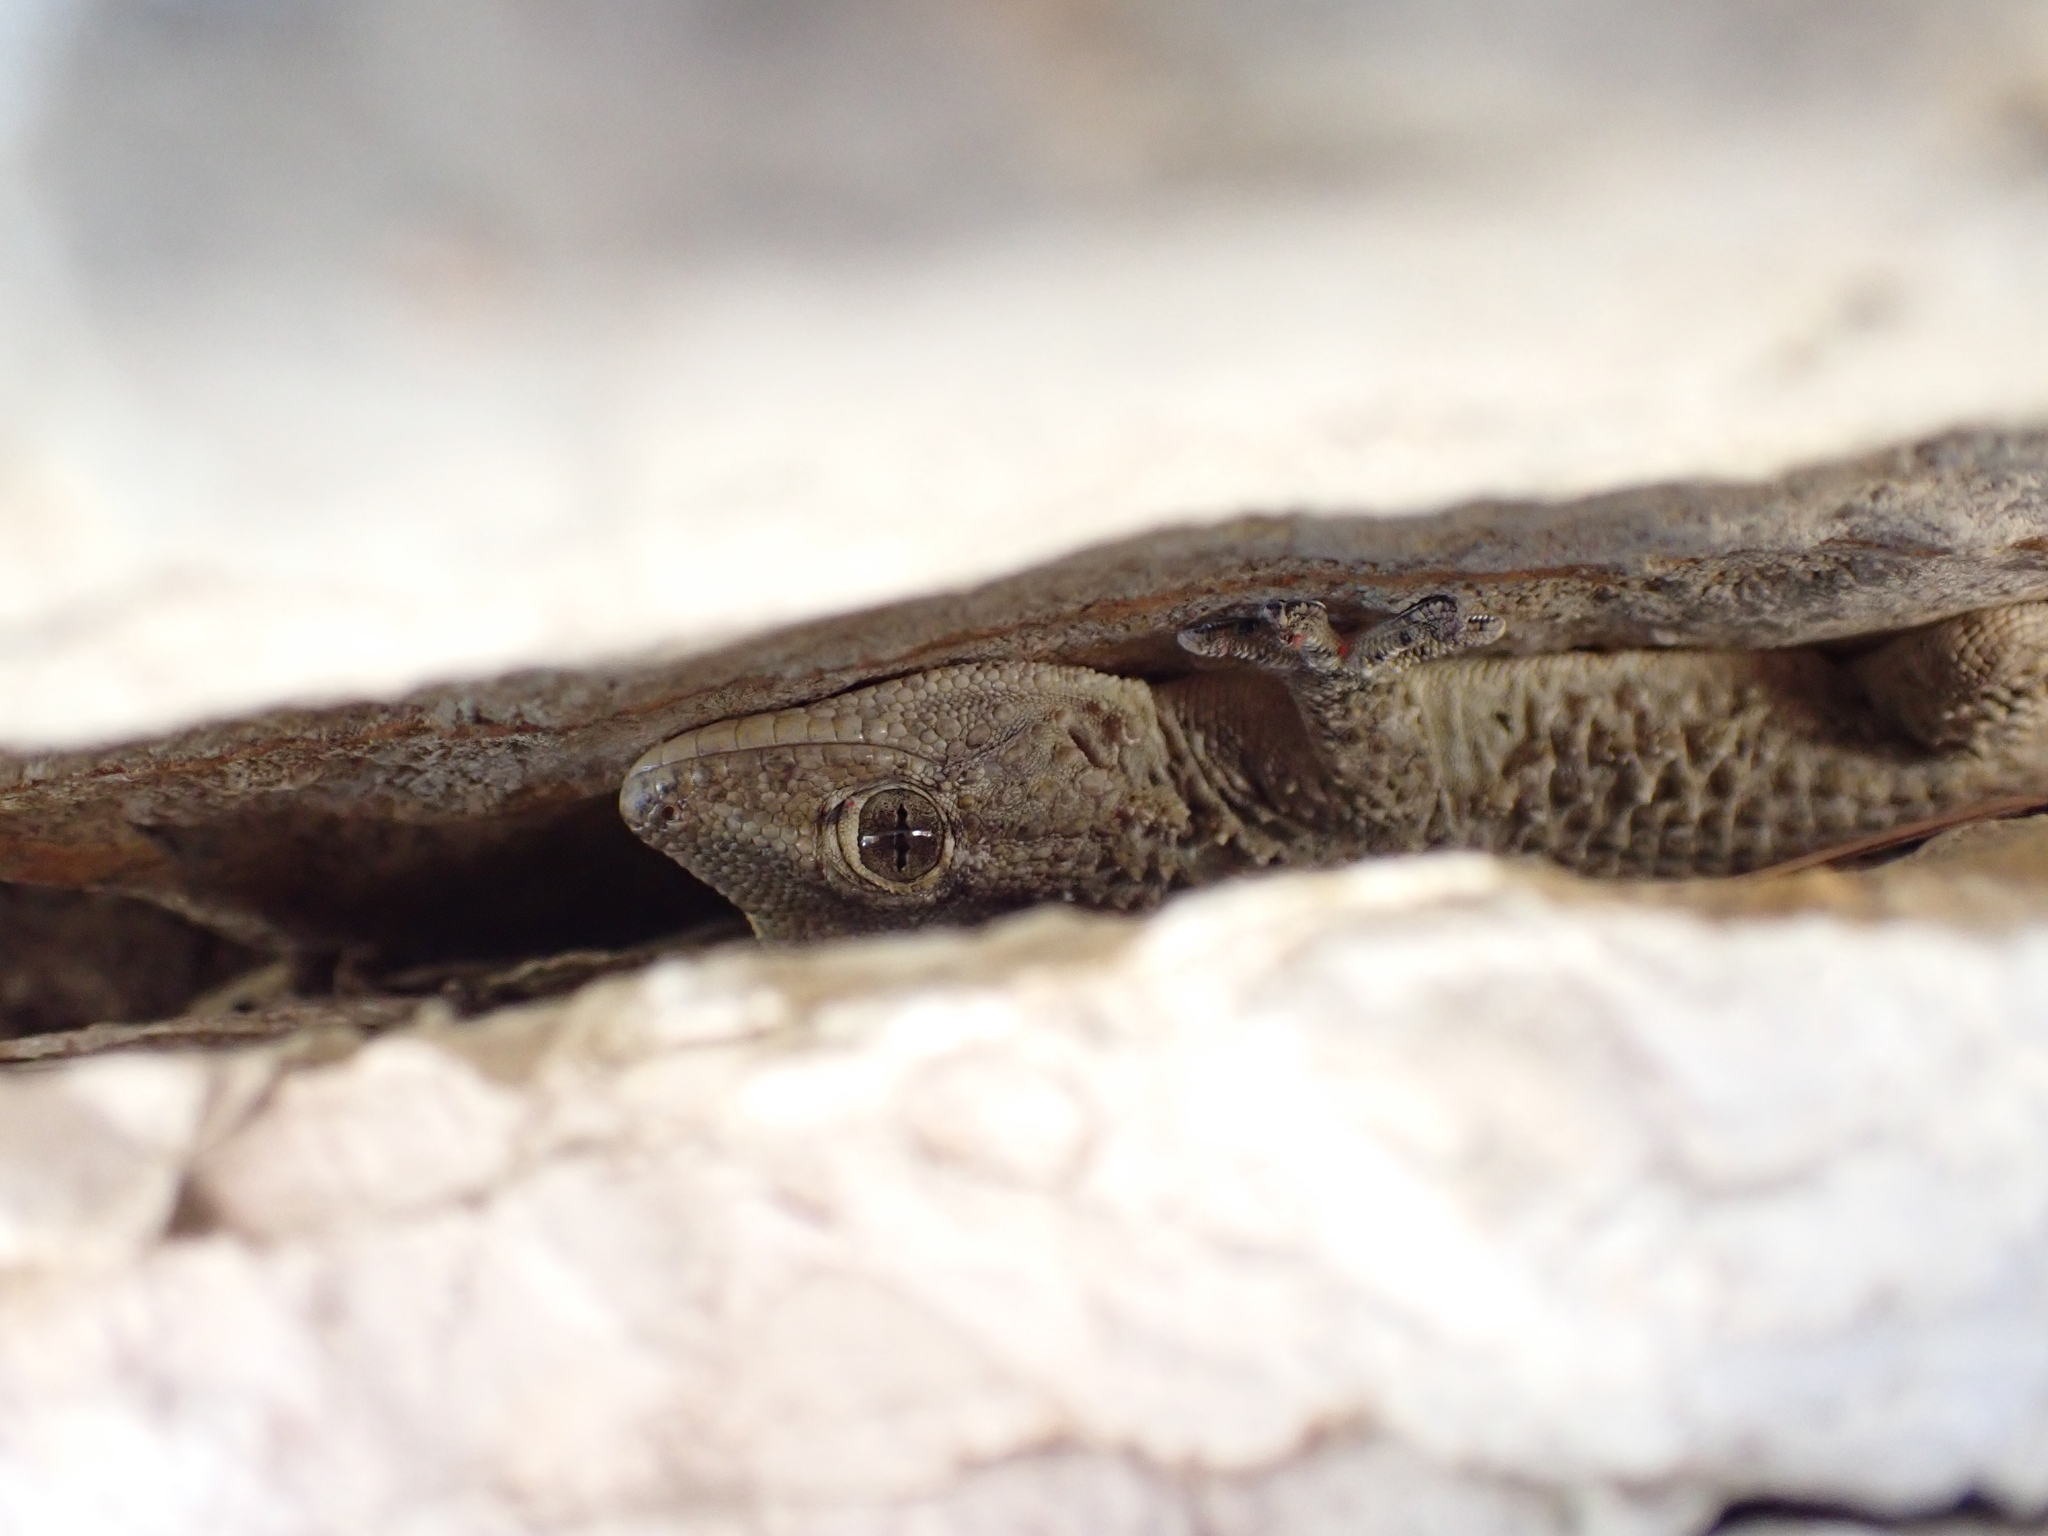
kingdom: Animalia
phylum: Chordata
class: Squamata
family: Phyllodactylidae
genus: Tarentola
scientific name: Tarentola mauritanica
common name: Moorish gecko
